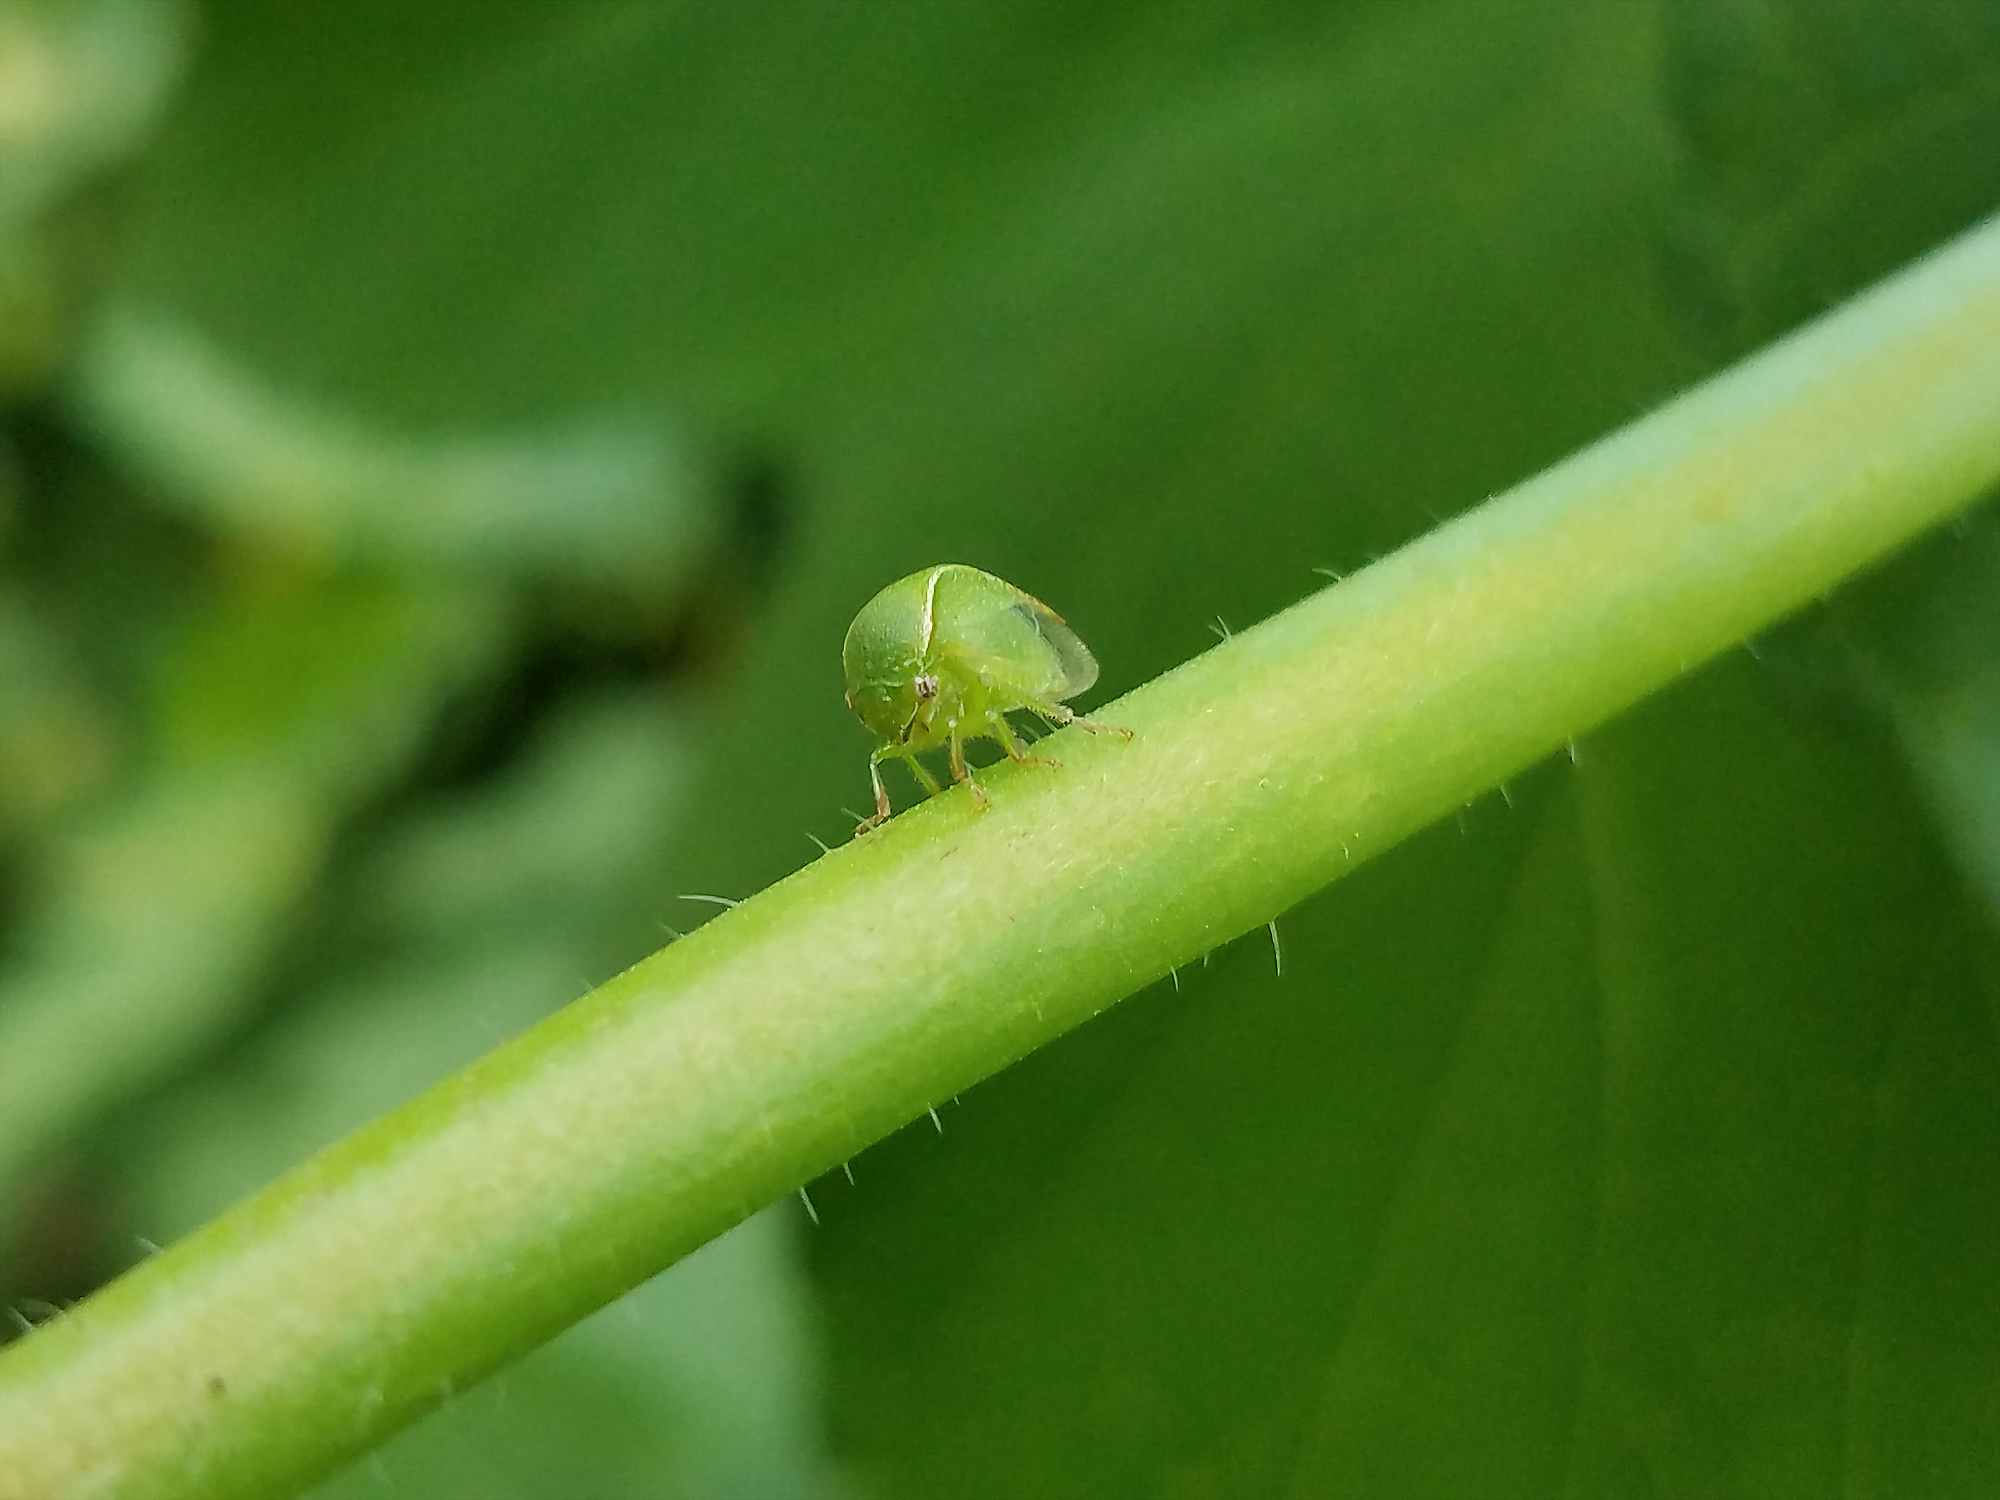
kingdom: Animalia
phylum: Arthropoda
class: Insecta
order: Hemiptera
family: Membracidae
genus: Spissistilus
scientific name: Spissistilus festina
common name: Membracid bug
